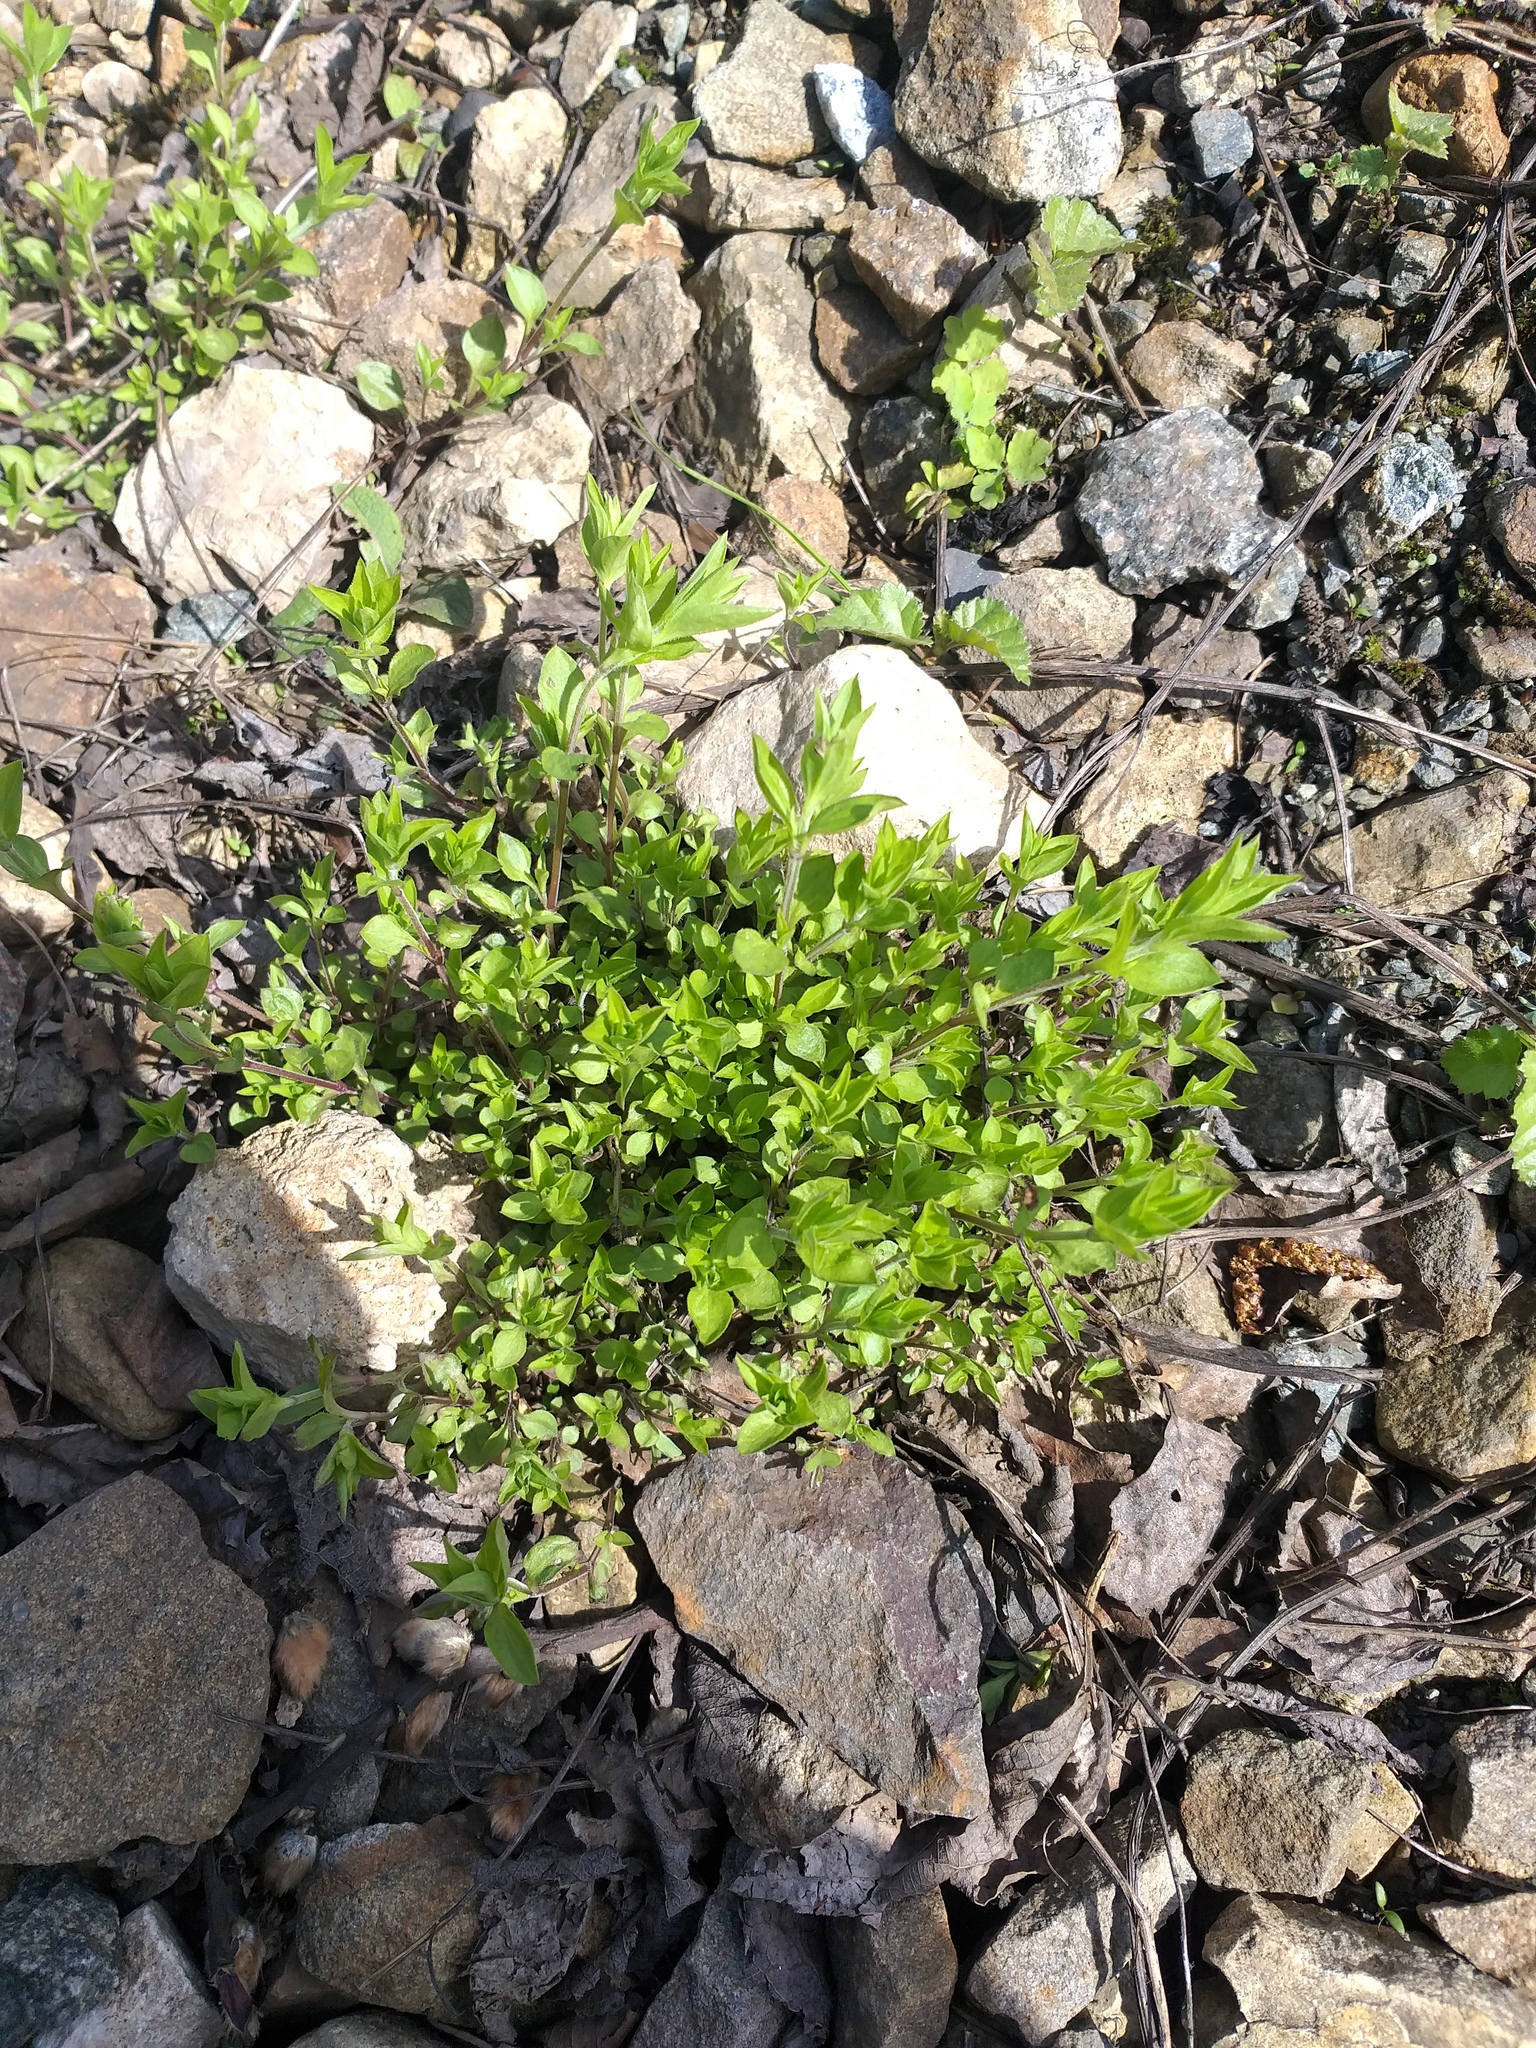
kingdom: Plantae
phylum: Tracheophyta
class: Magnoliopsida
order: Caryophyllales
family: Caryophyllaceae
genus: Moehringia
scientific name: Moehringia trinervia
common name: Three-nerved sandwort
